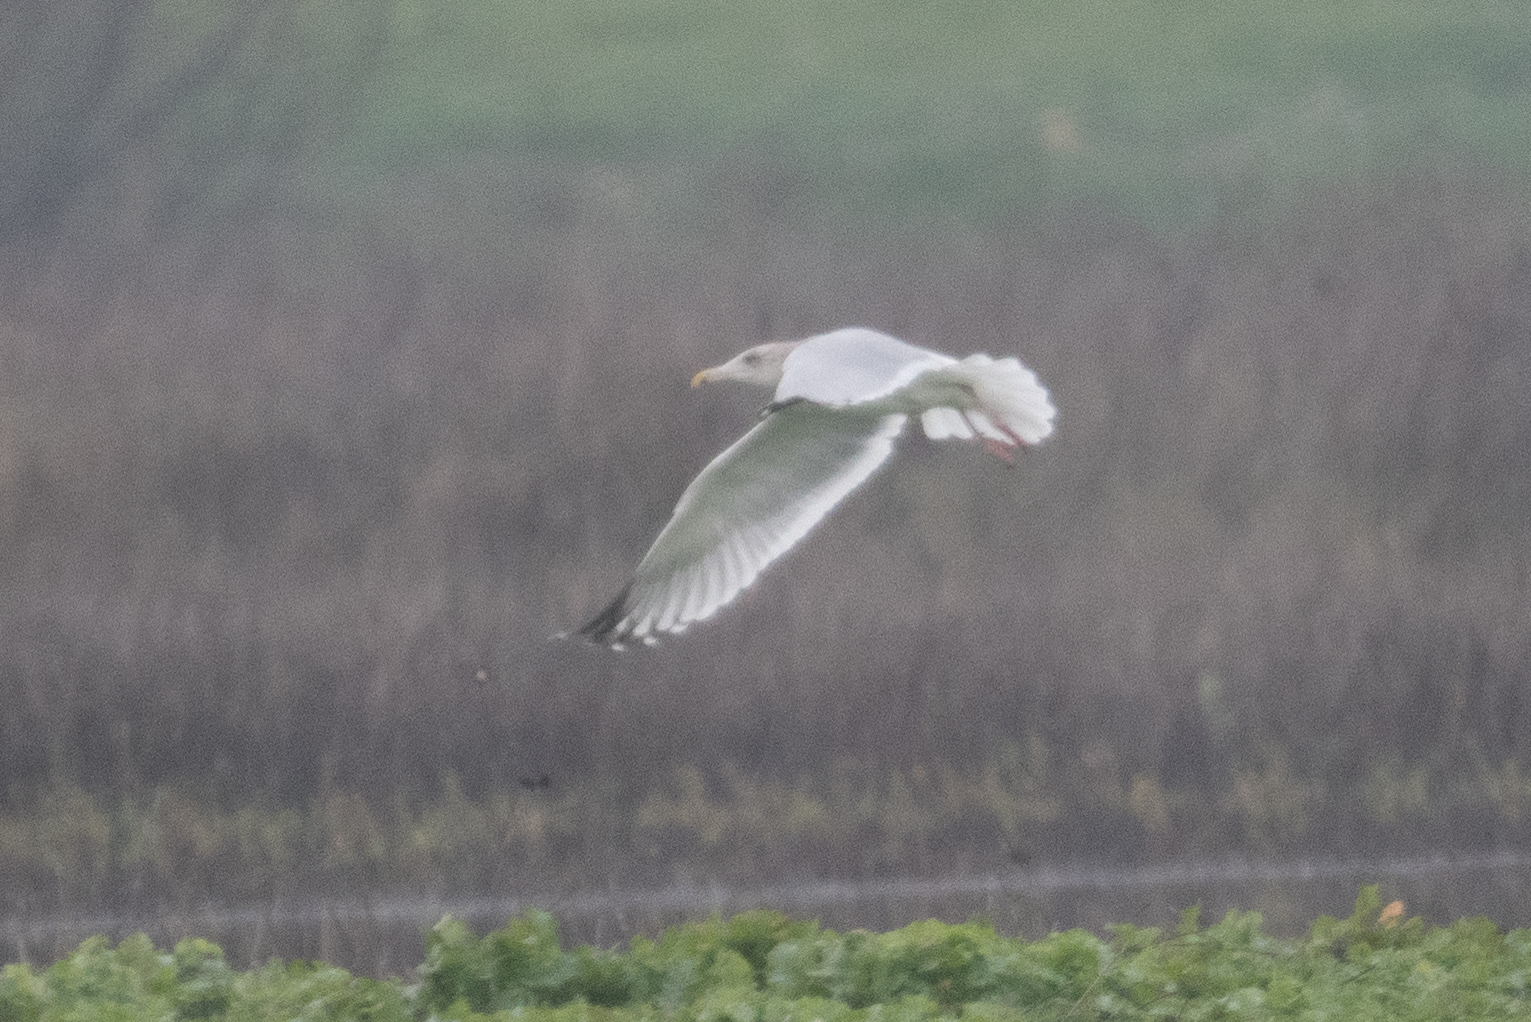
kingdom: Animalia
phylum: Chordata
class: Aves
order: Charadriiformes
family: Laridae
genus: Larus
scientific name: Larus argentatus
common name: Herring gull
